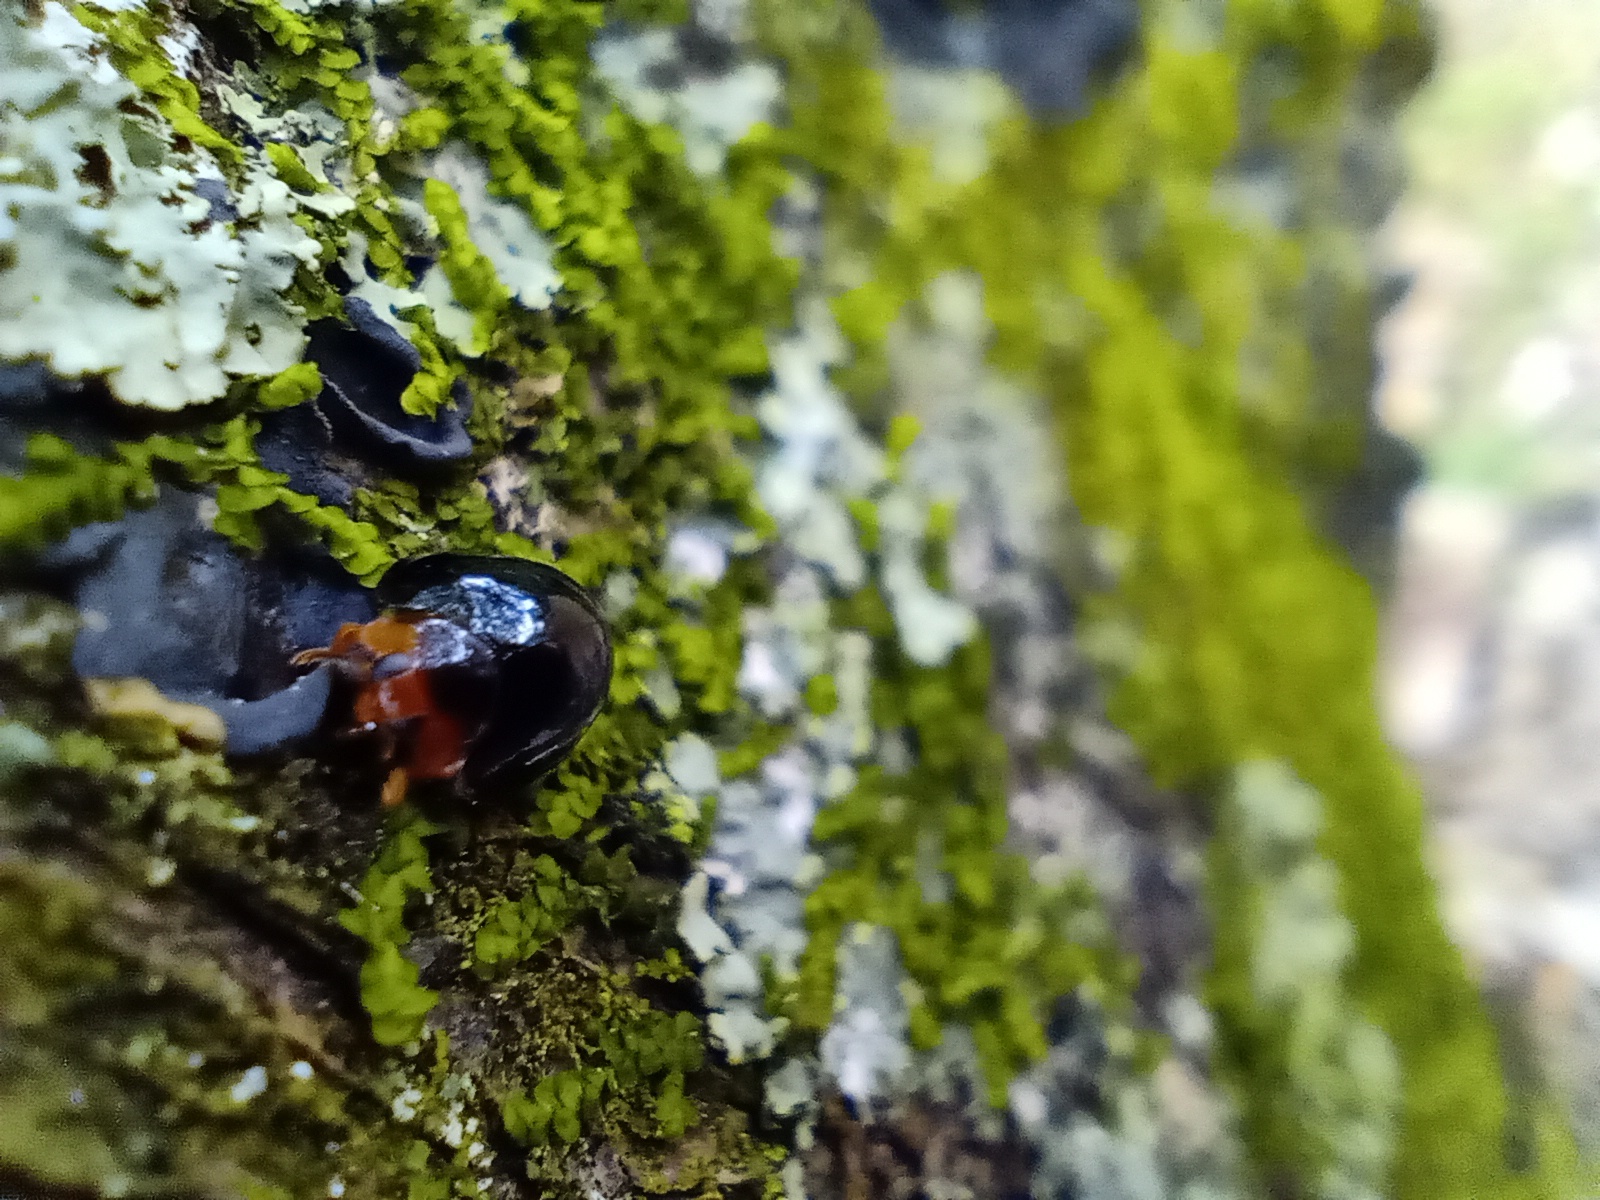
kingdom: Animalia
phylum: Arthropoda
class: Insecta
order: Coleoptera
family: Coccinellidae
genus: Chilocorus
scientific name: Chilocorus nigritus
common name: Ladybird beetle
